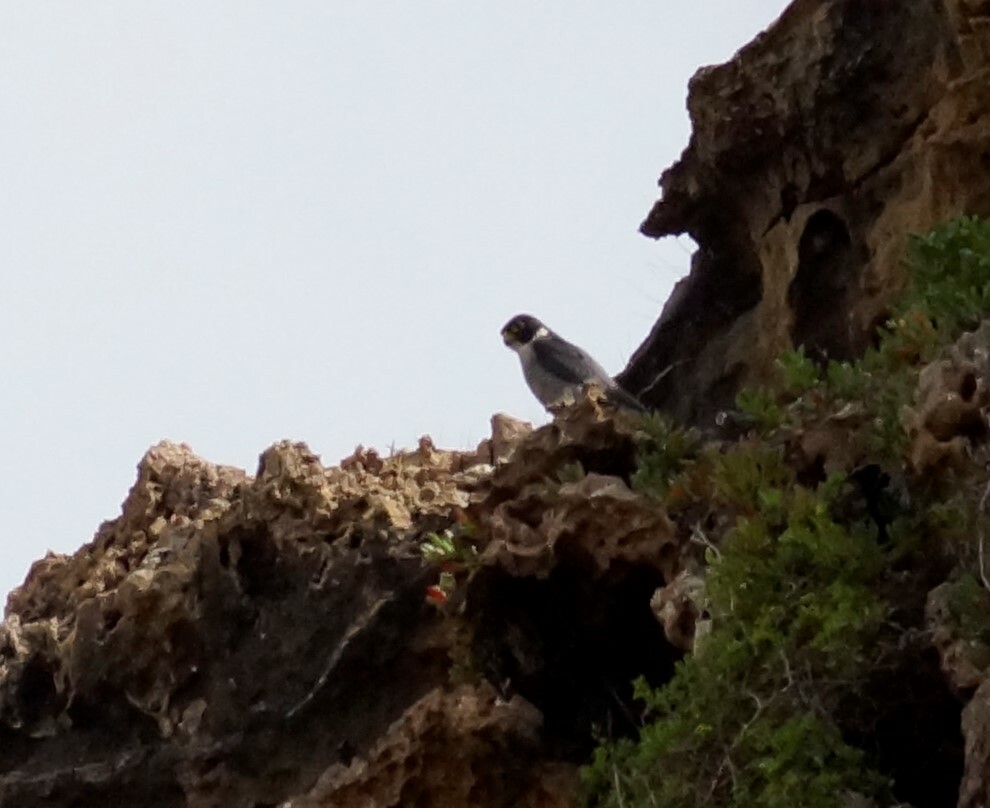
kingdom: Animalia
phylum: Chordata
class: Aves
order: Falconiformes
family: Falconidae
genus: Falco
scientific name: Falco peregrinus
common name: Peregrine falcon
